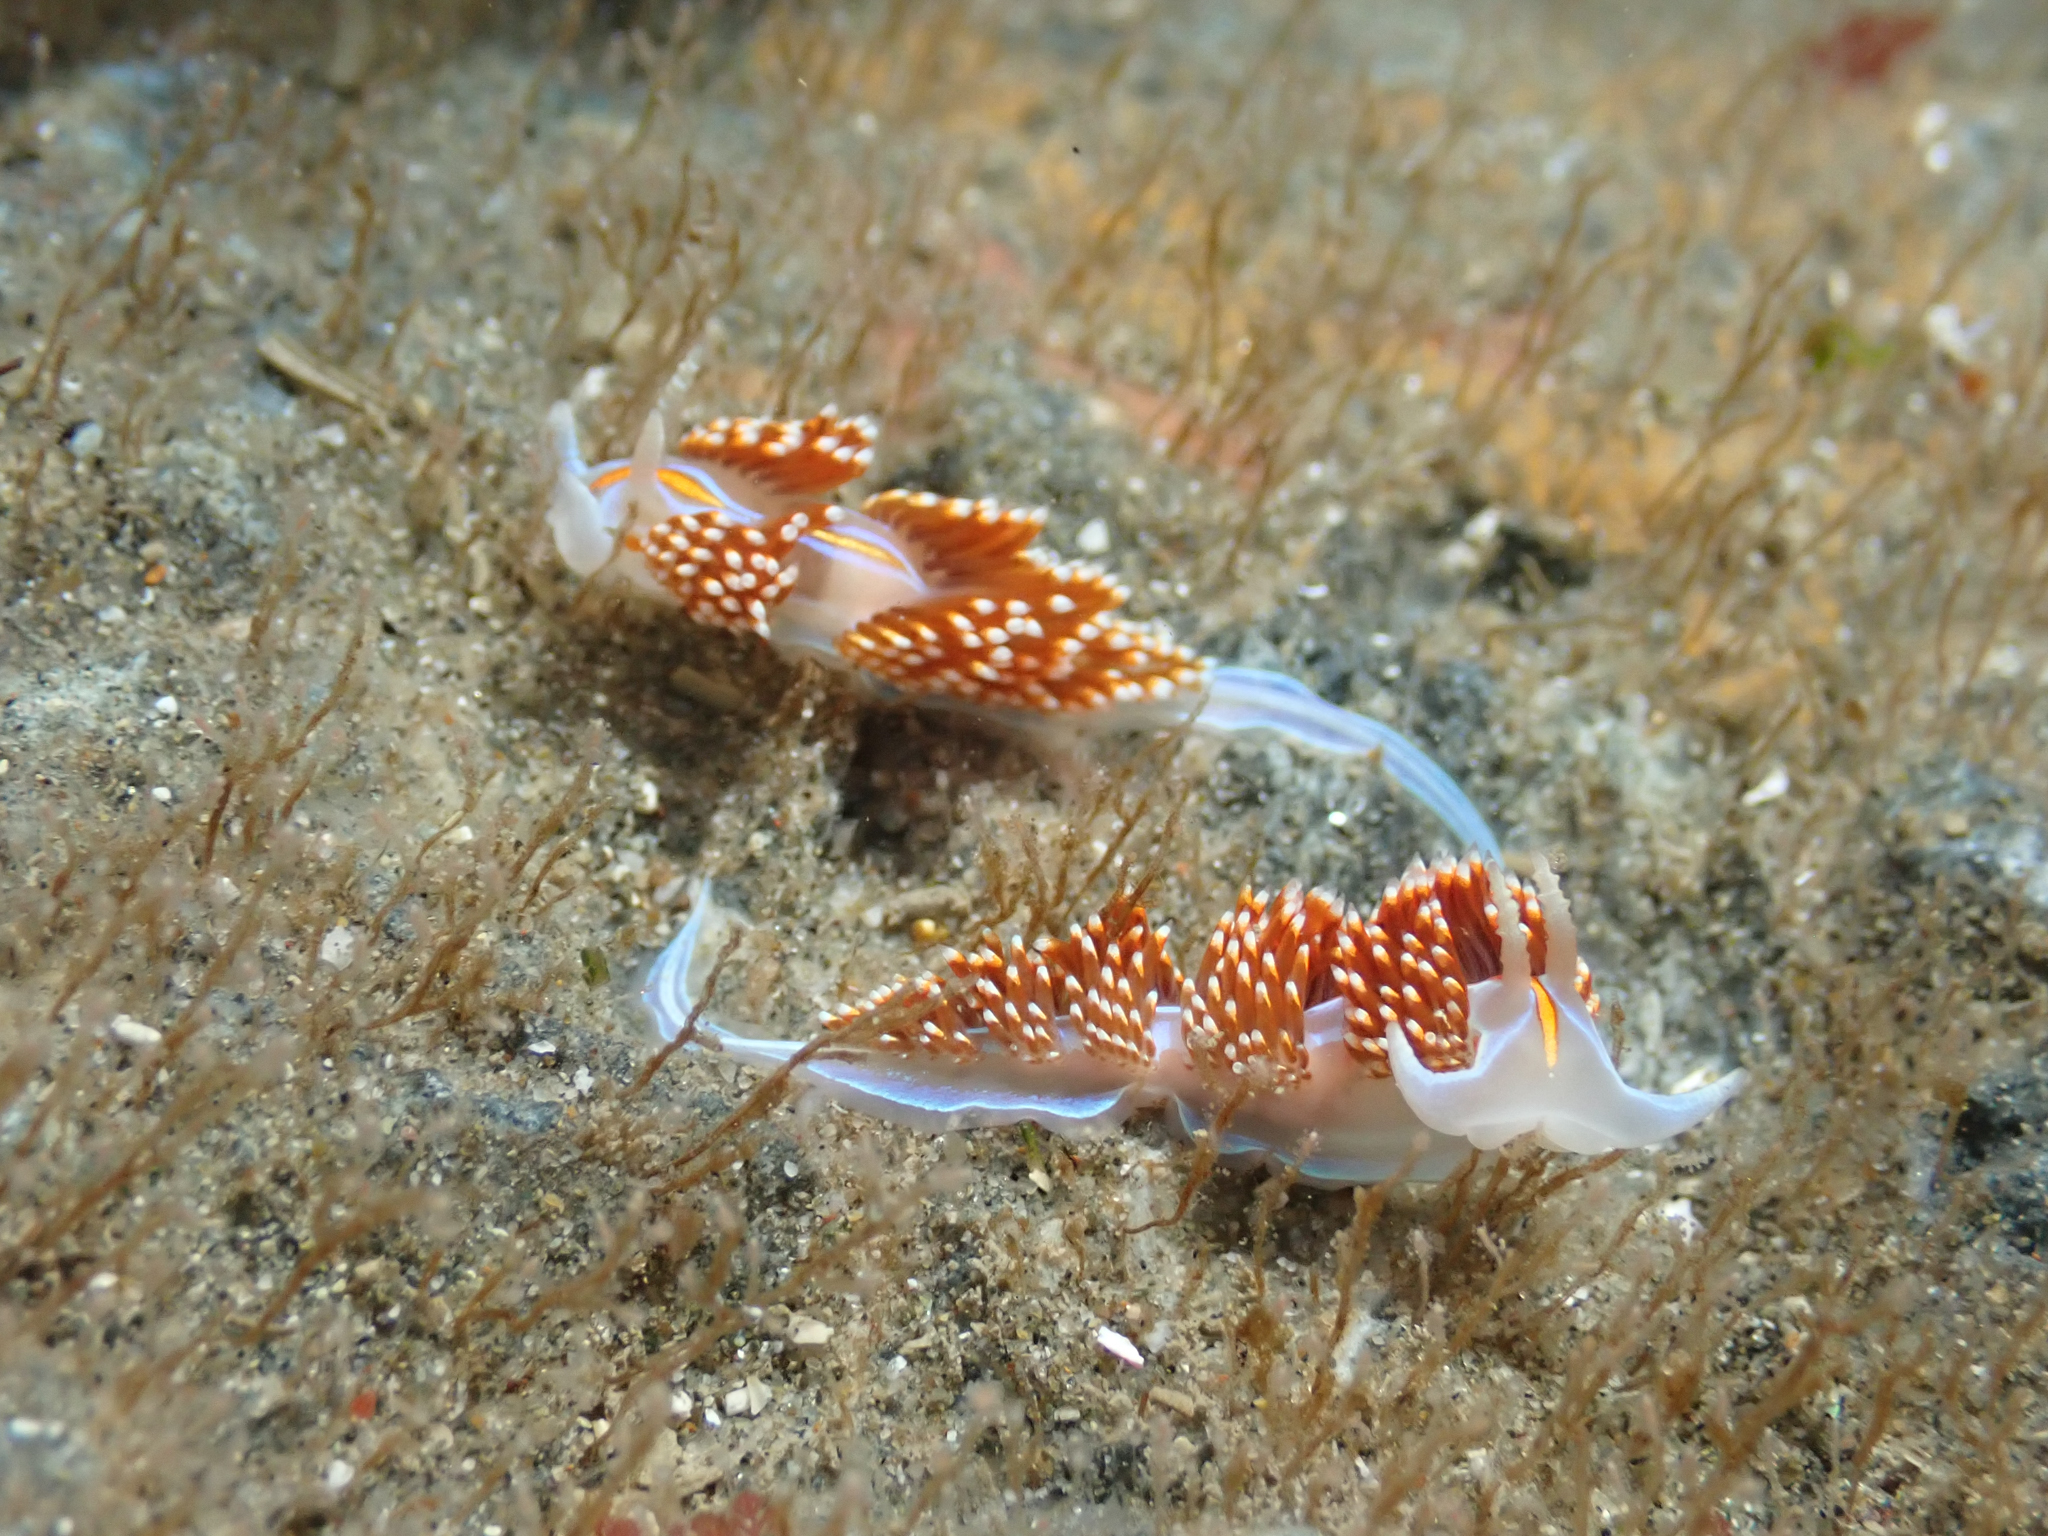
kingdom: Animalia
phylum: Mollusca
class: Gastropoda
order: Nudibranchia
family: Myrrhinidae
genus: Hermissenda
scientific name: Hermissenda opalescens
